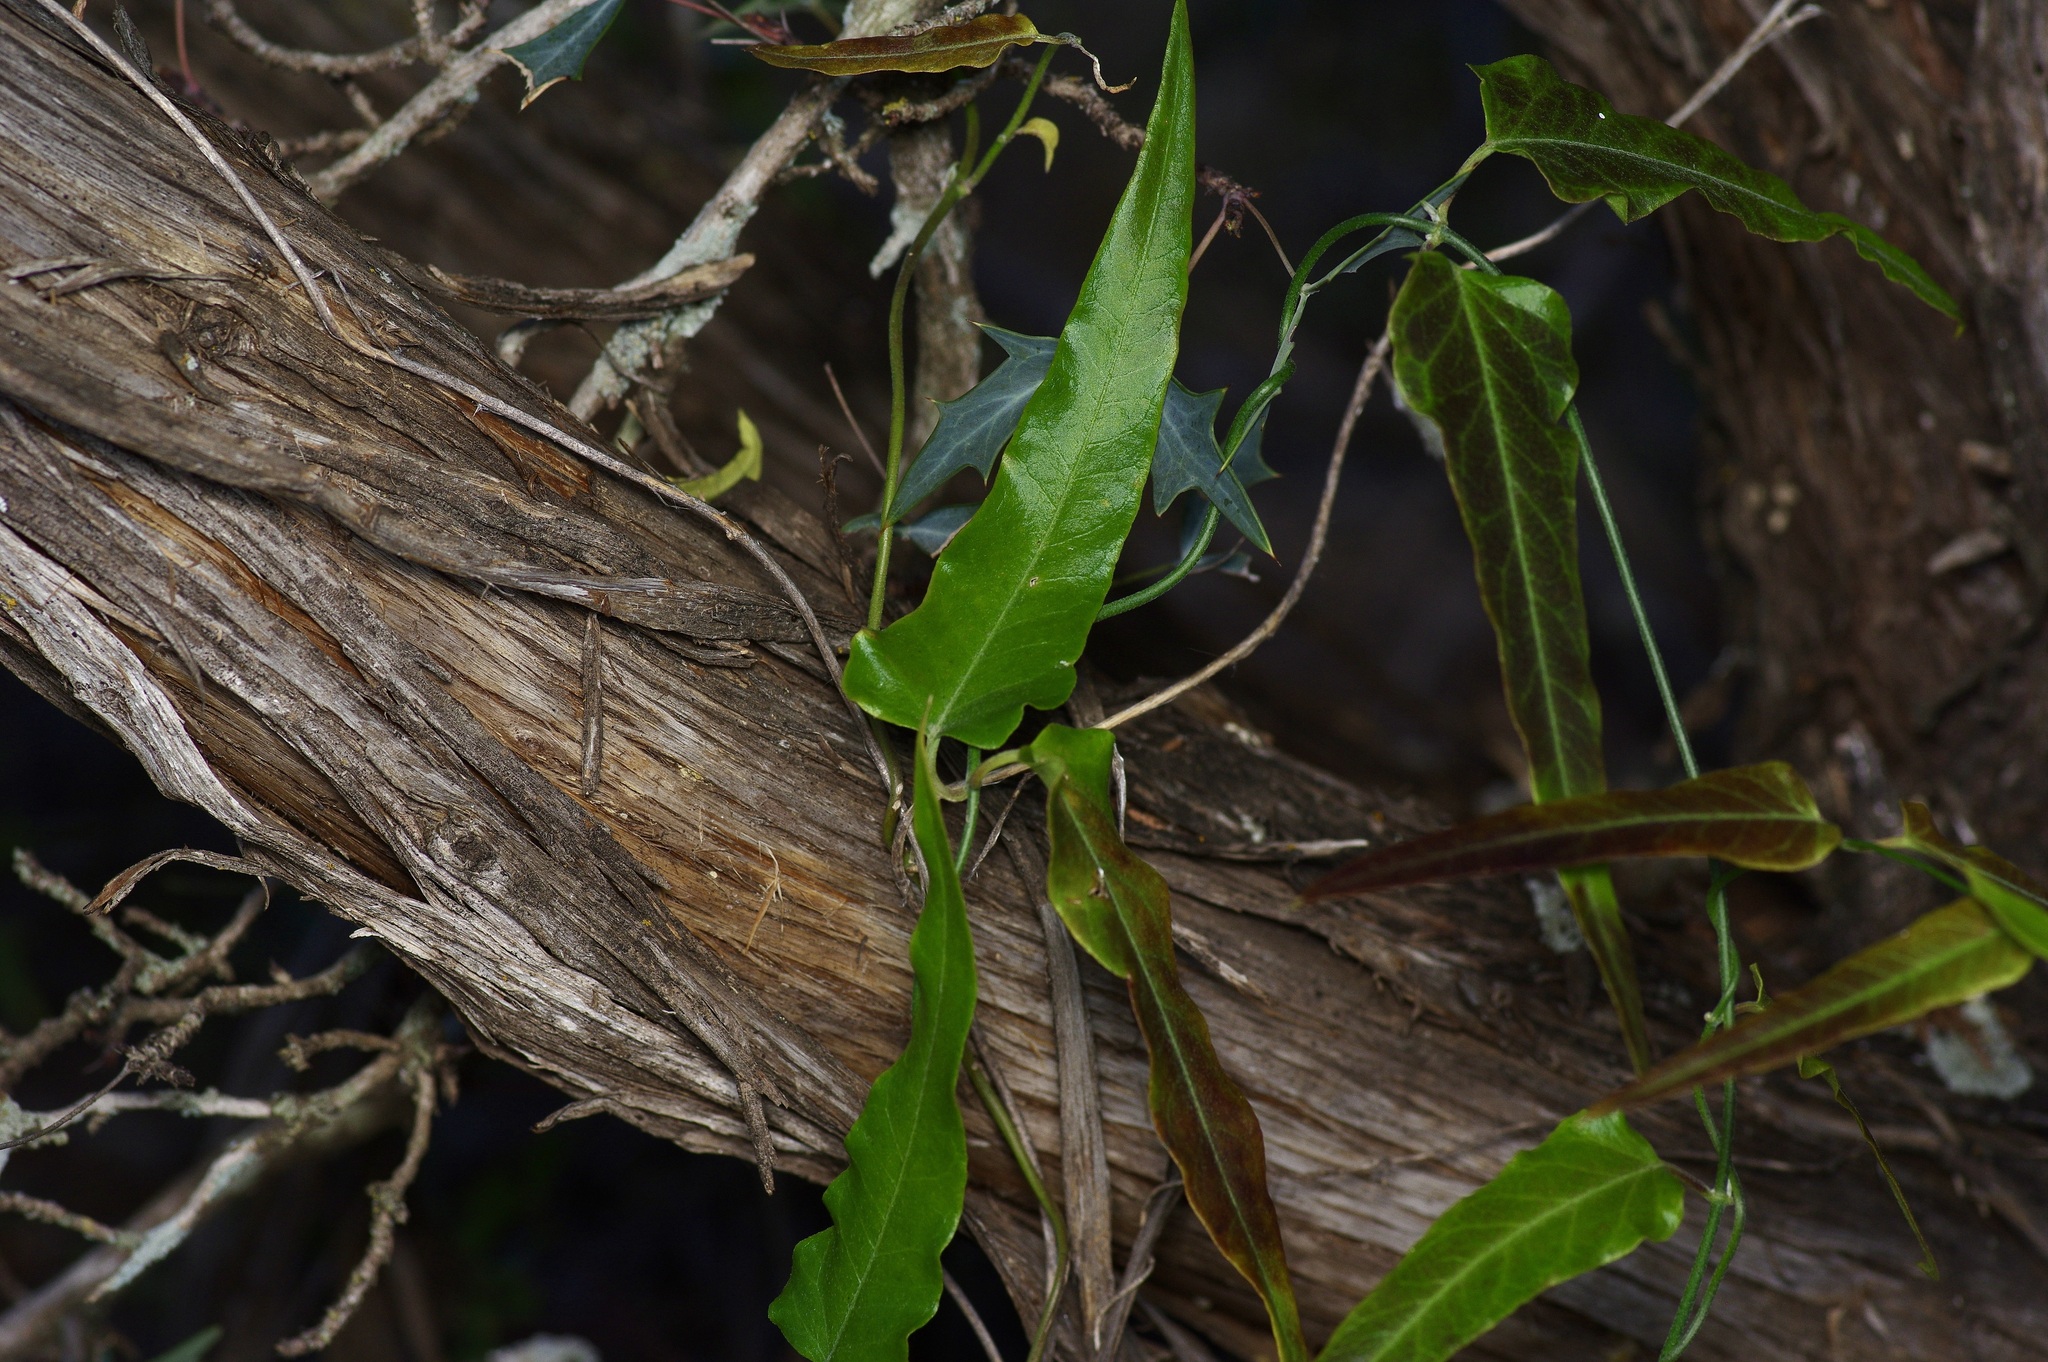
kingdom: Plantae
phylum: Tracheophyta
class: Magnoliopsida
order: Gentianales
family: Apocynaceae
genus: Funastrum
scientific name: Funastrum crispum
